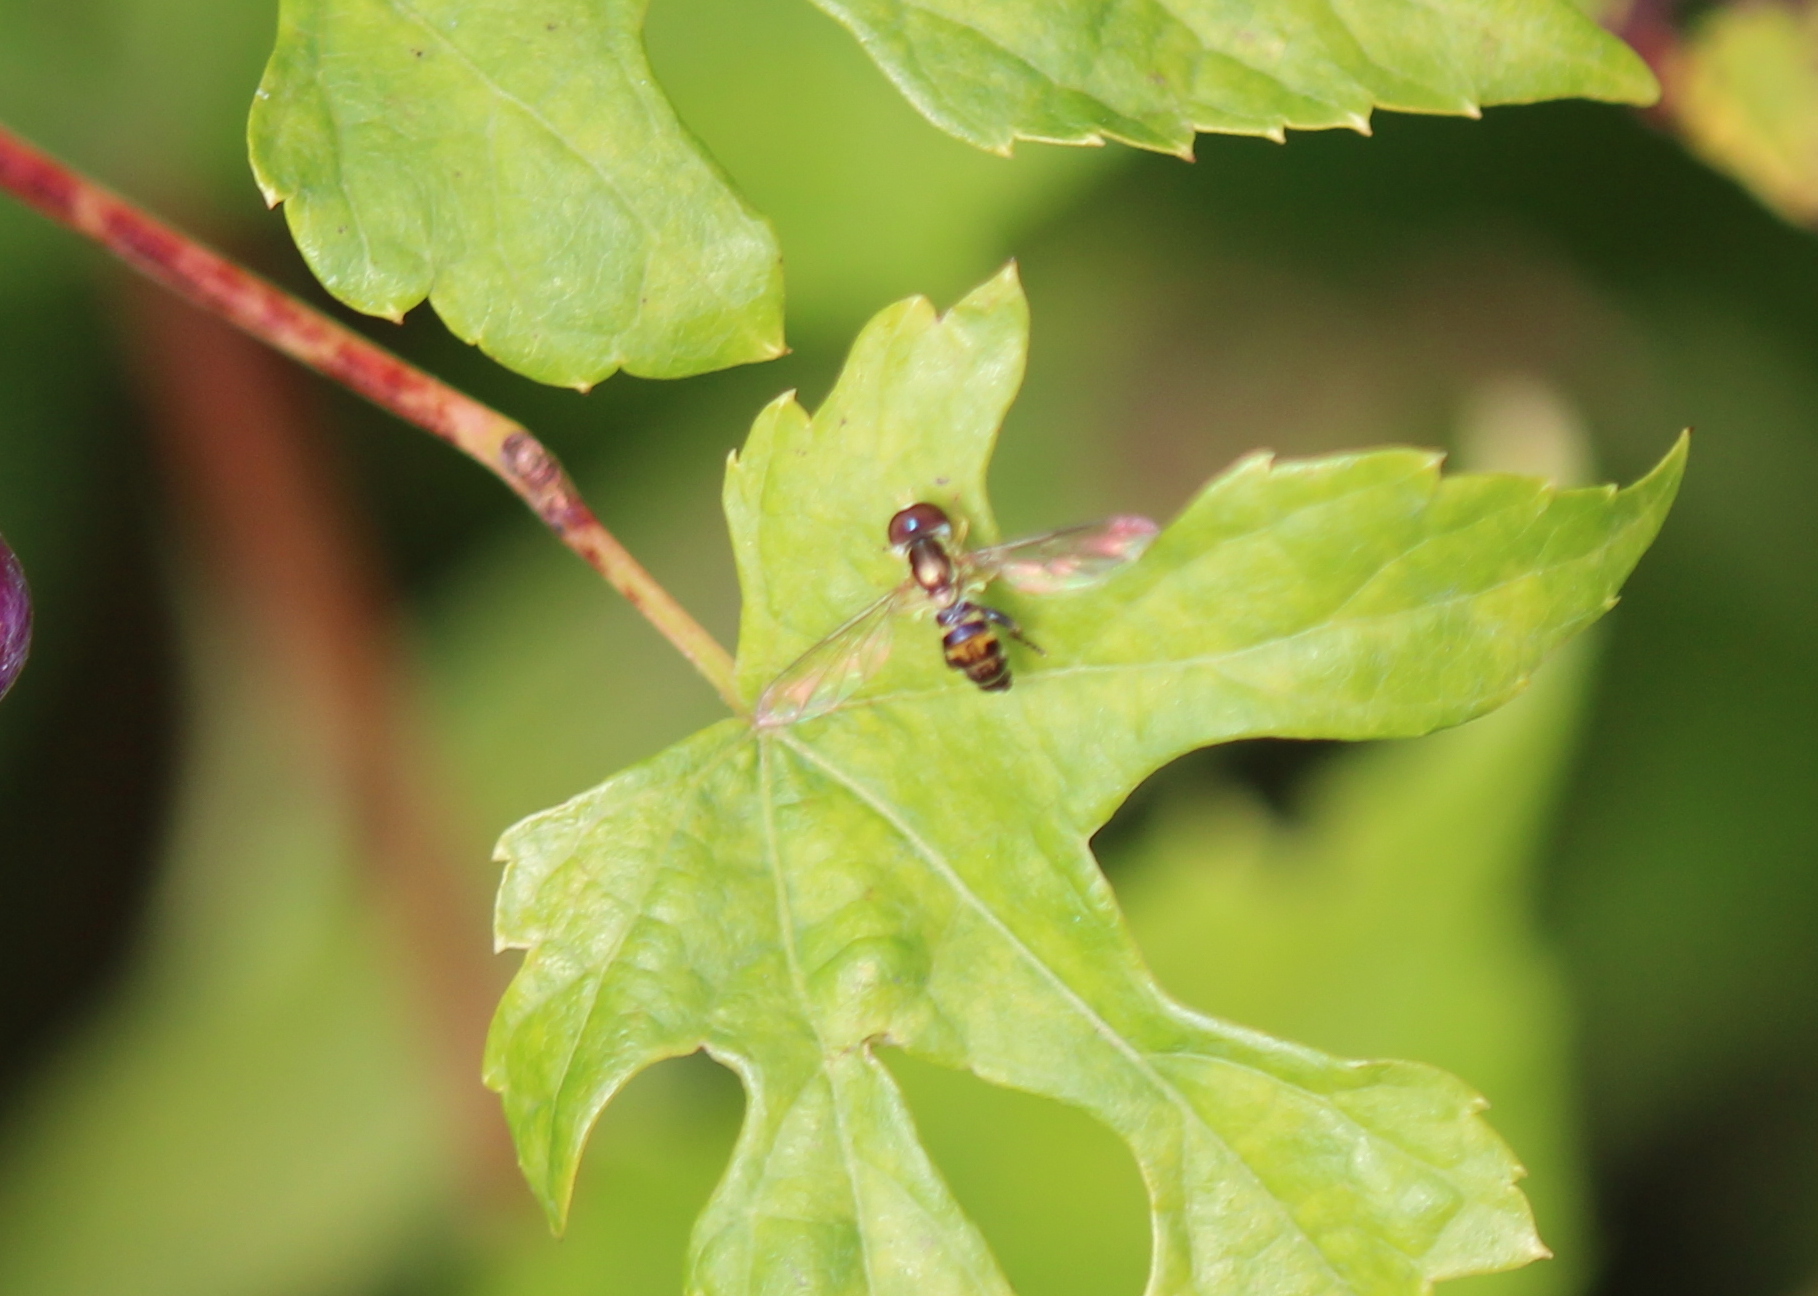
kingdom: Animalia
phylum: Arthropoda
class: Insecta
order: Diptera
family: Syrphidae
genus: Toxomerus
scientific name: Toxomerus geminatus
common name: Eastern calligrapher
